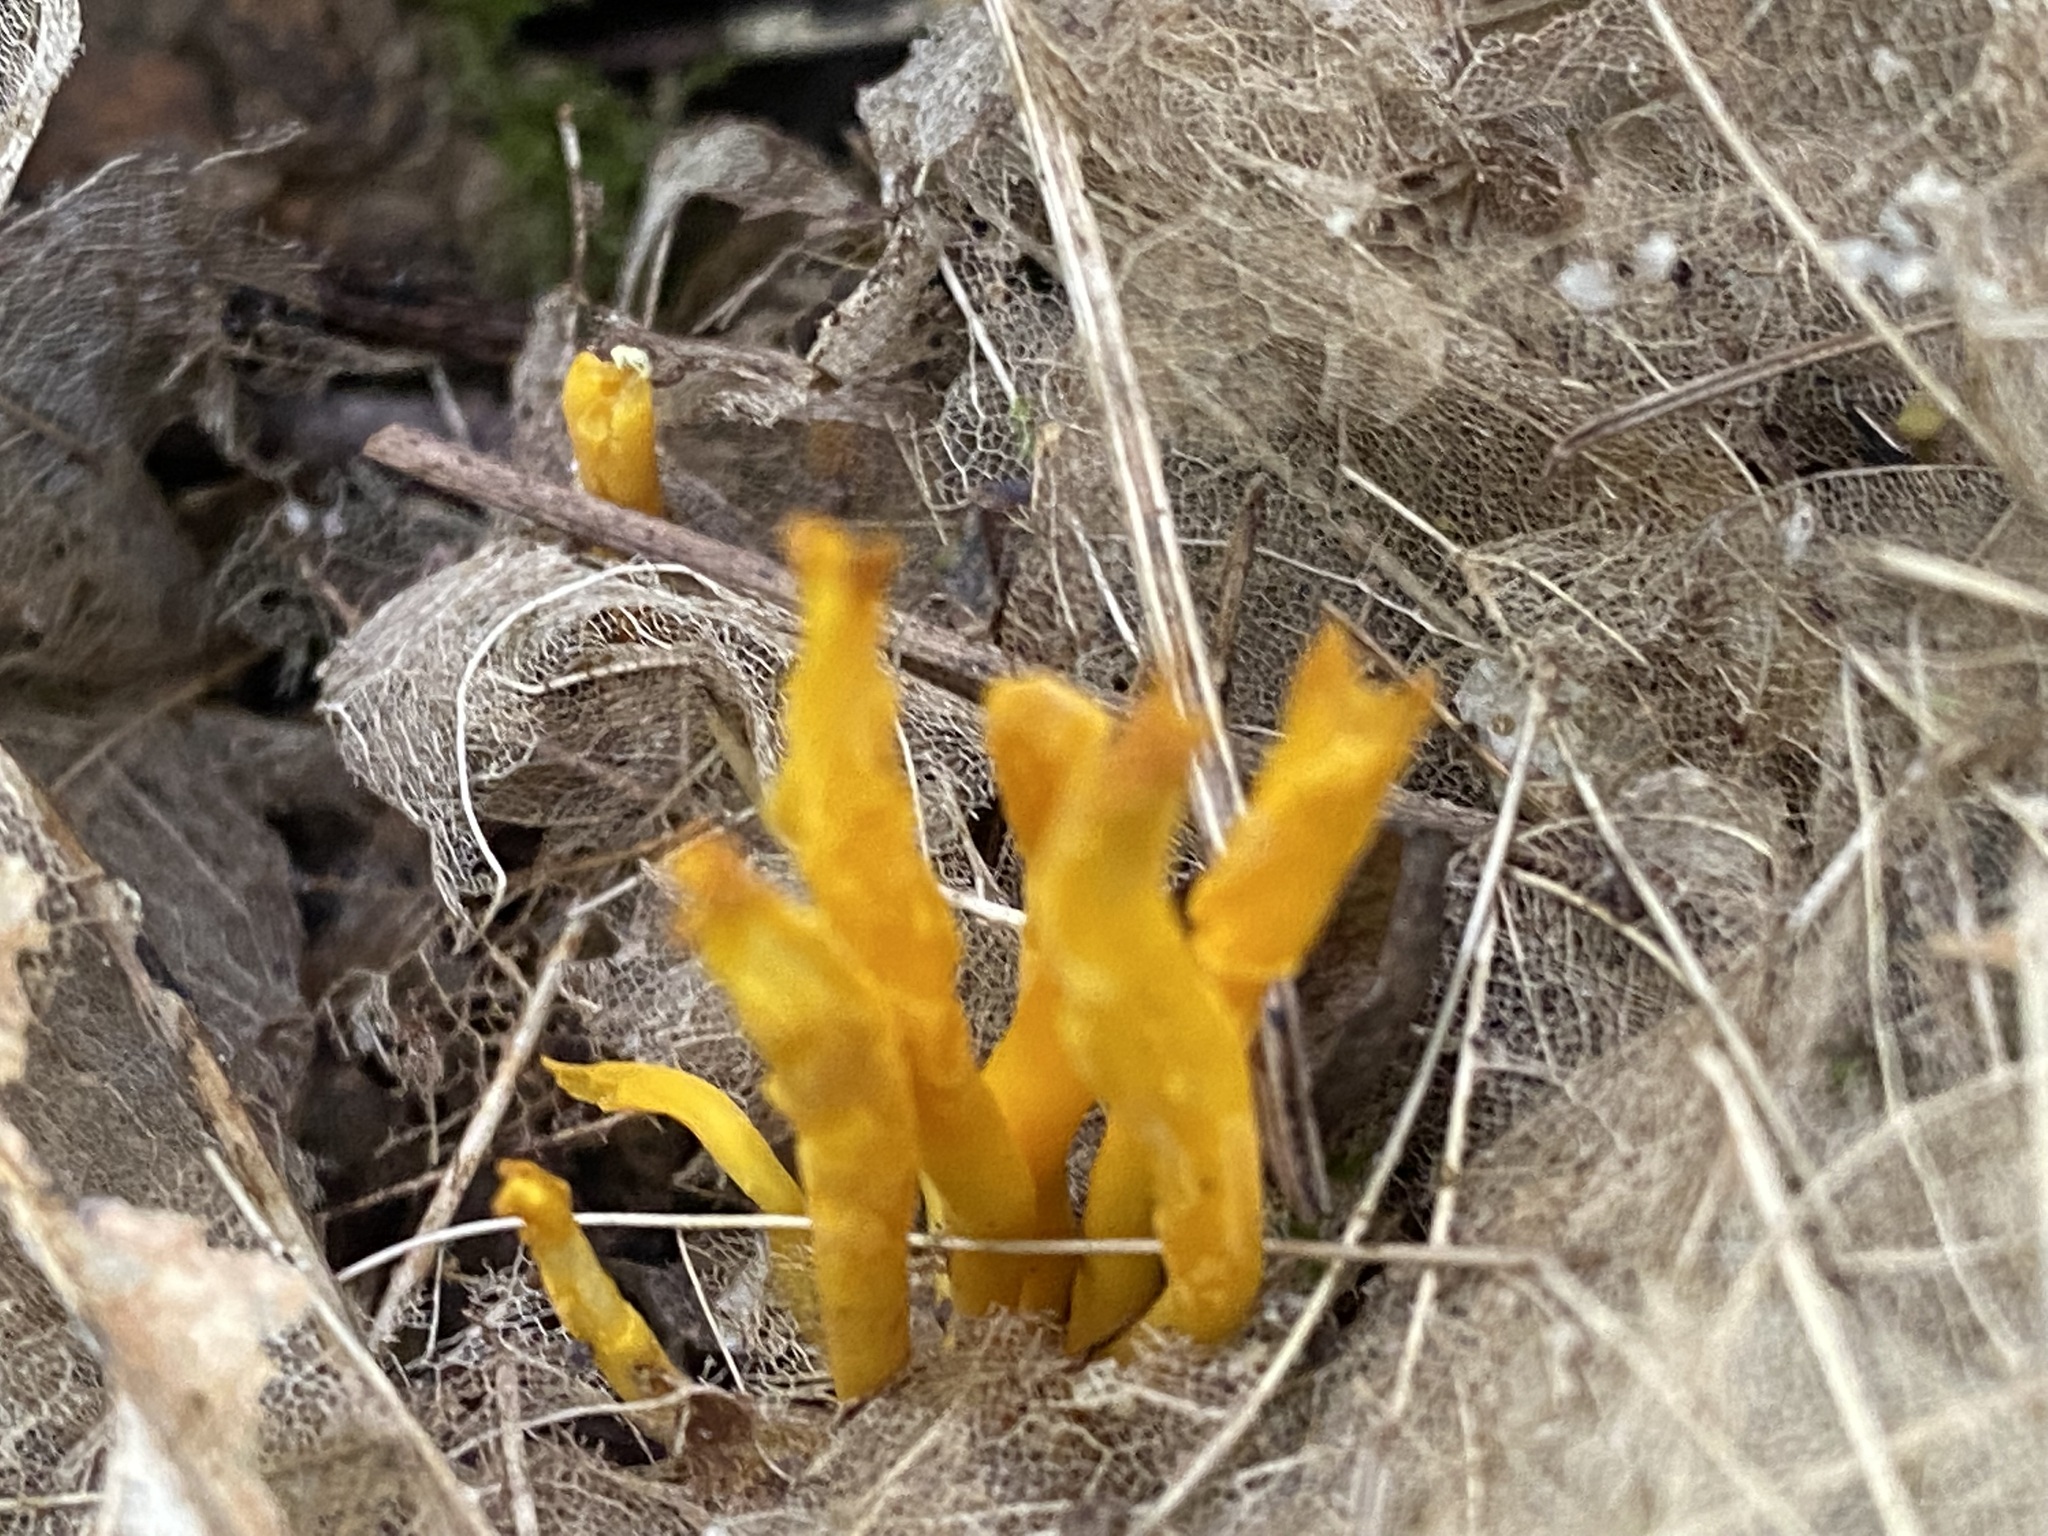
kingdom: Fungi
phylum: Basidiomycota
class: Agaricomycetes
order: Agaricales
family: Clavariaceae
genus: Clavulinopsis
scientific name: Clavulinopsis fusiformis
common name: Golden spindles
